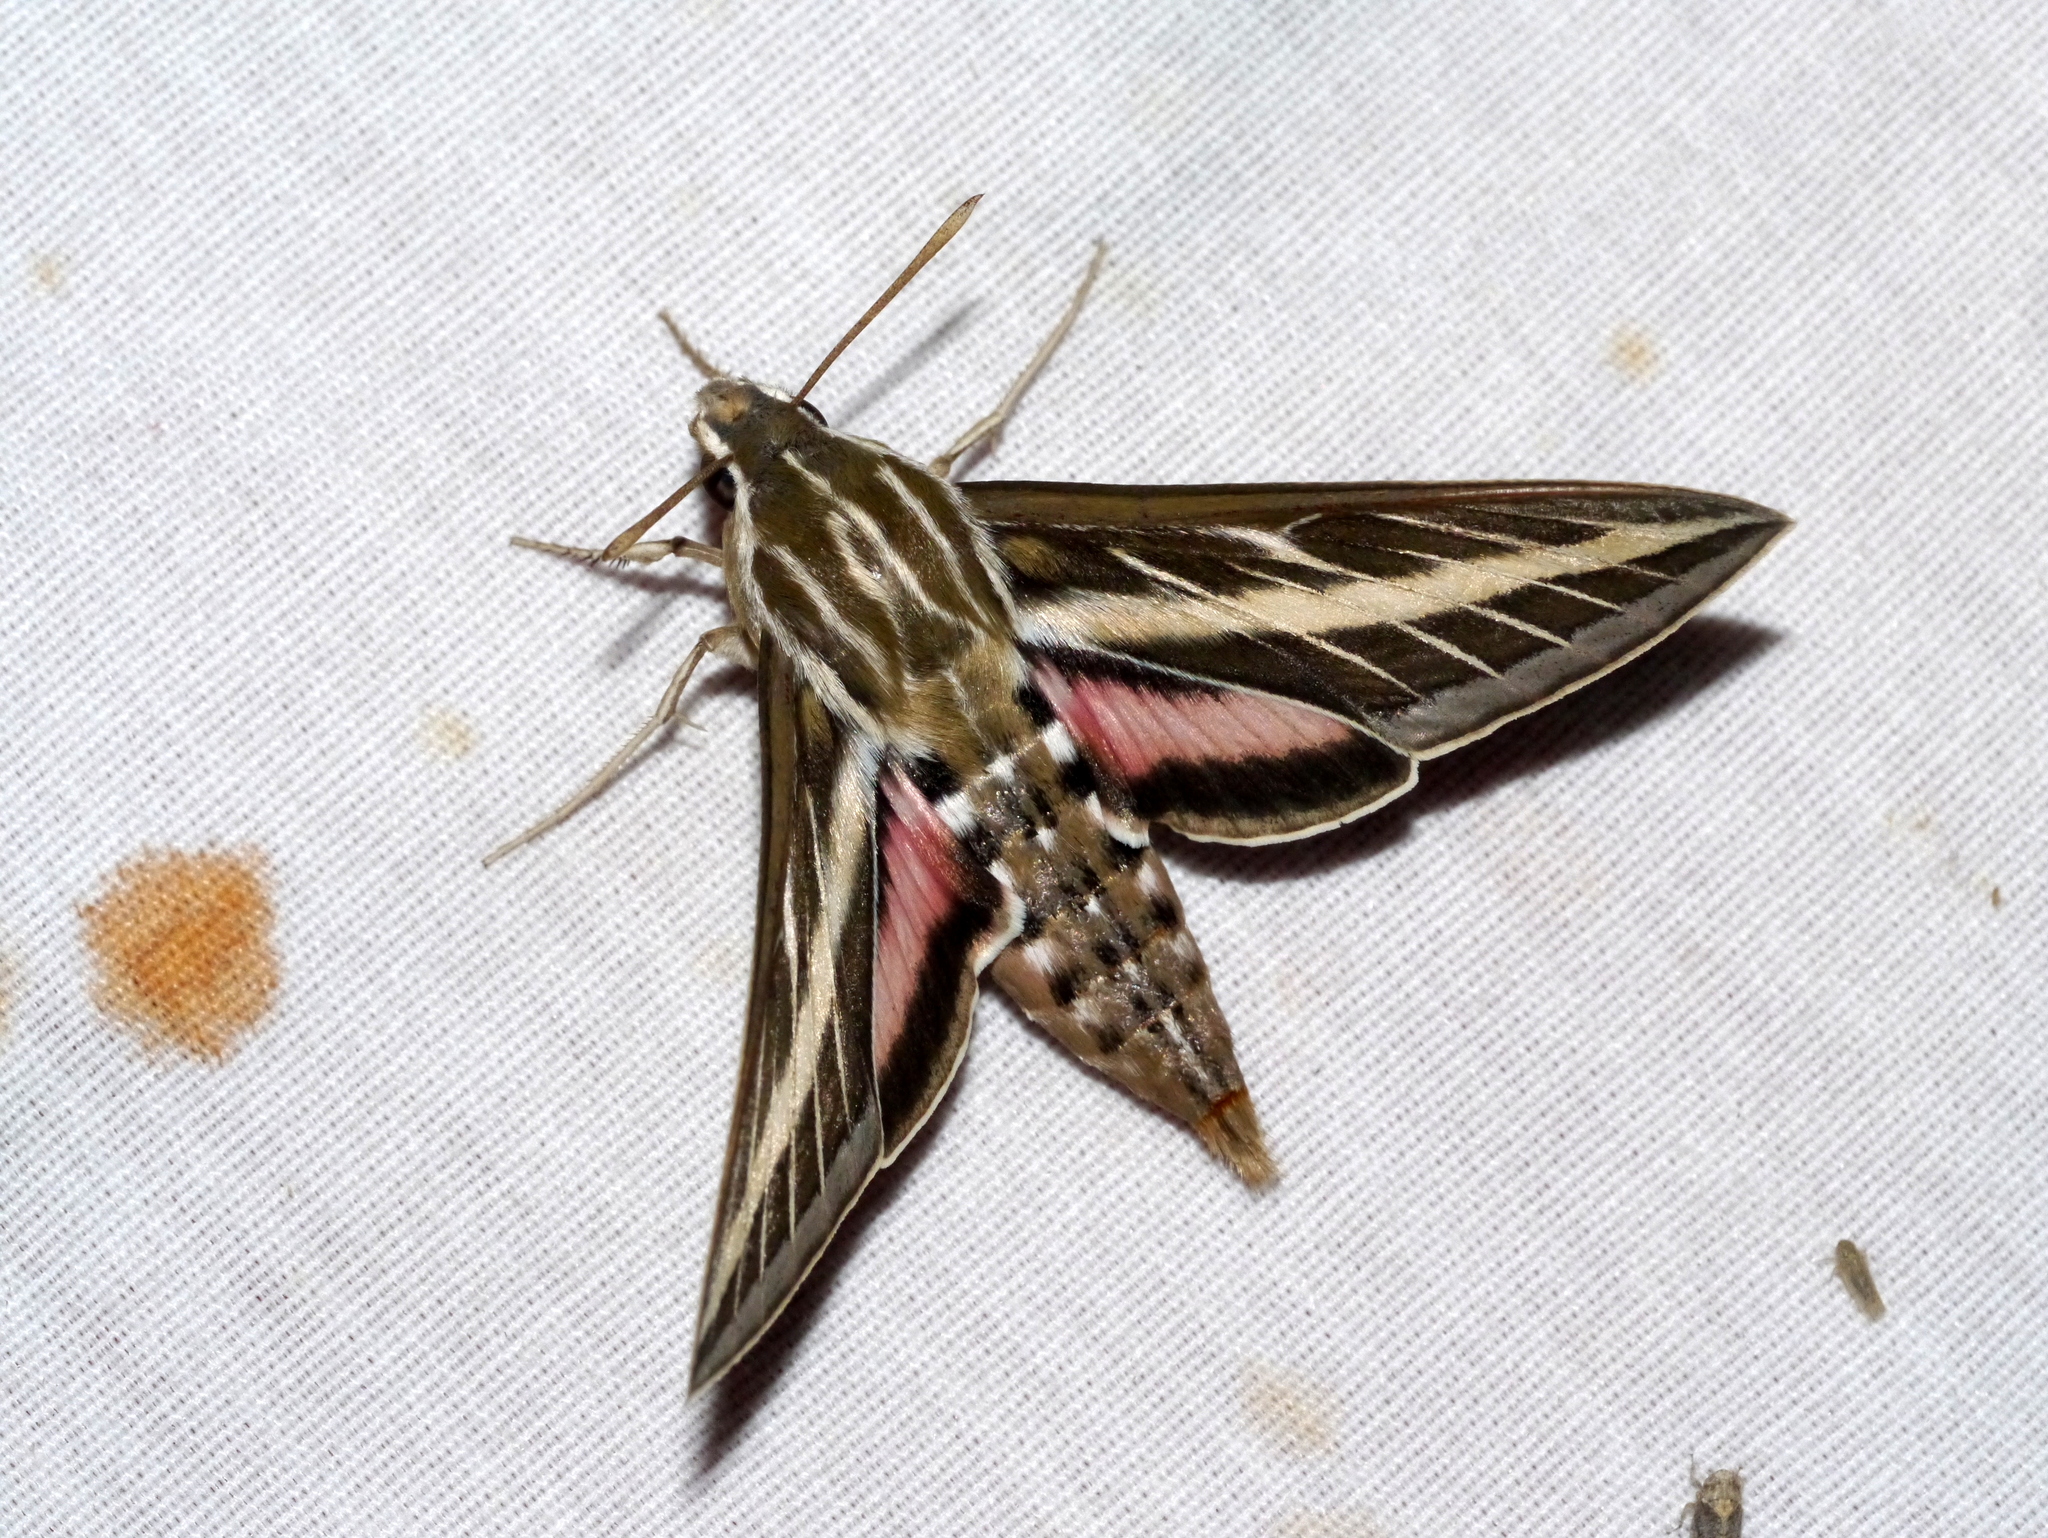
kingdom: Animalia
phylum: Arthropoda
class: Insecta
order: Lepidoptera
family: Sphingidae
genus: Hyles
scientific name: Hyles lineata
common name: White-lined sphinx
